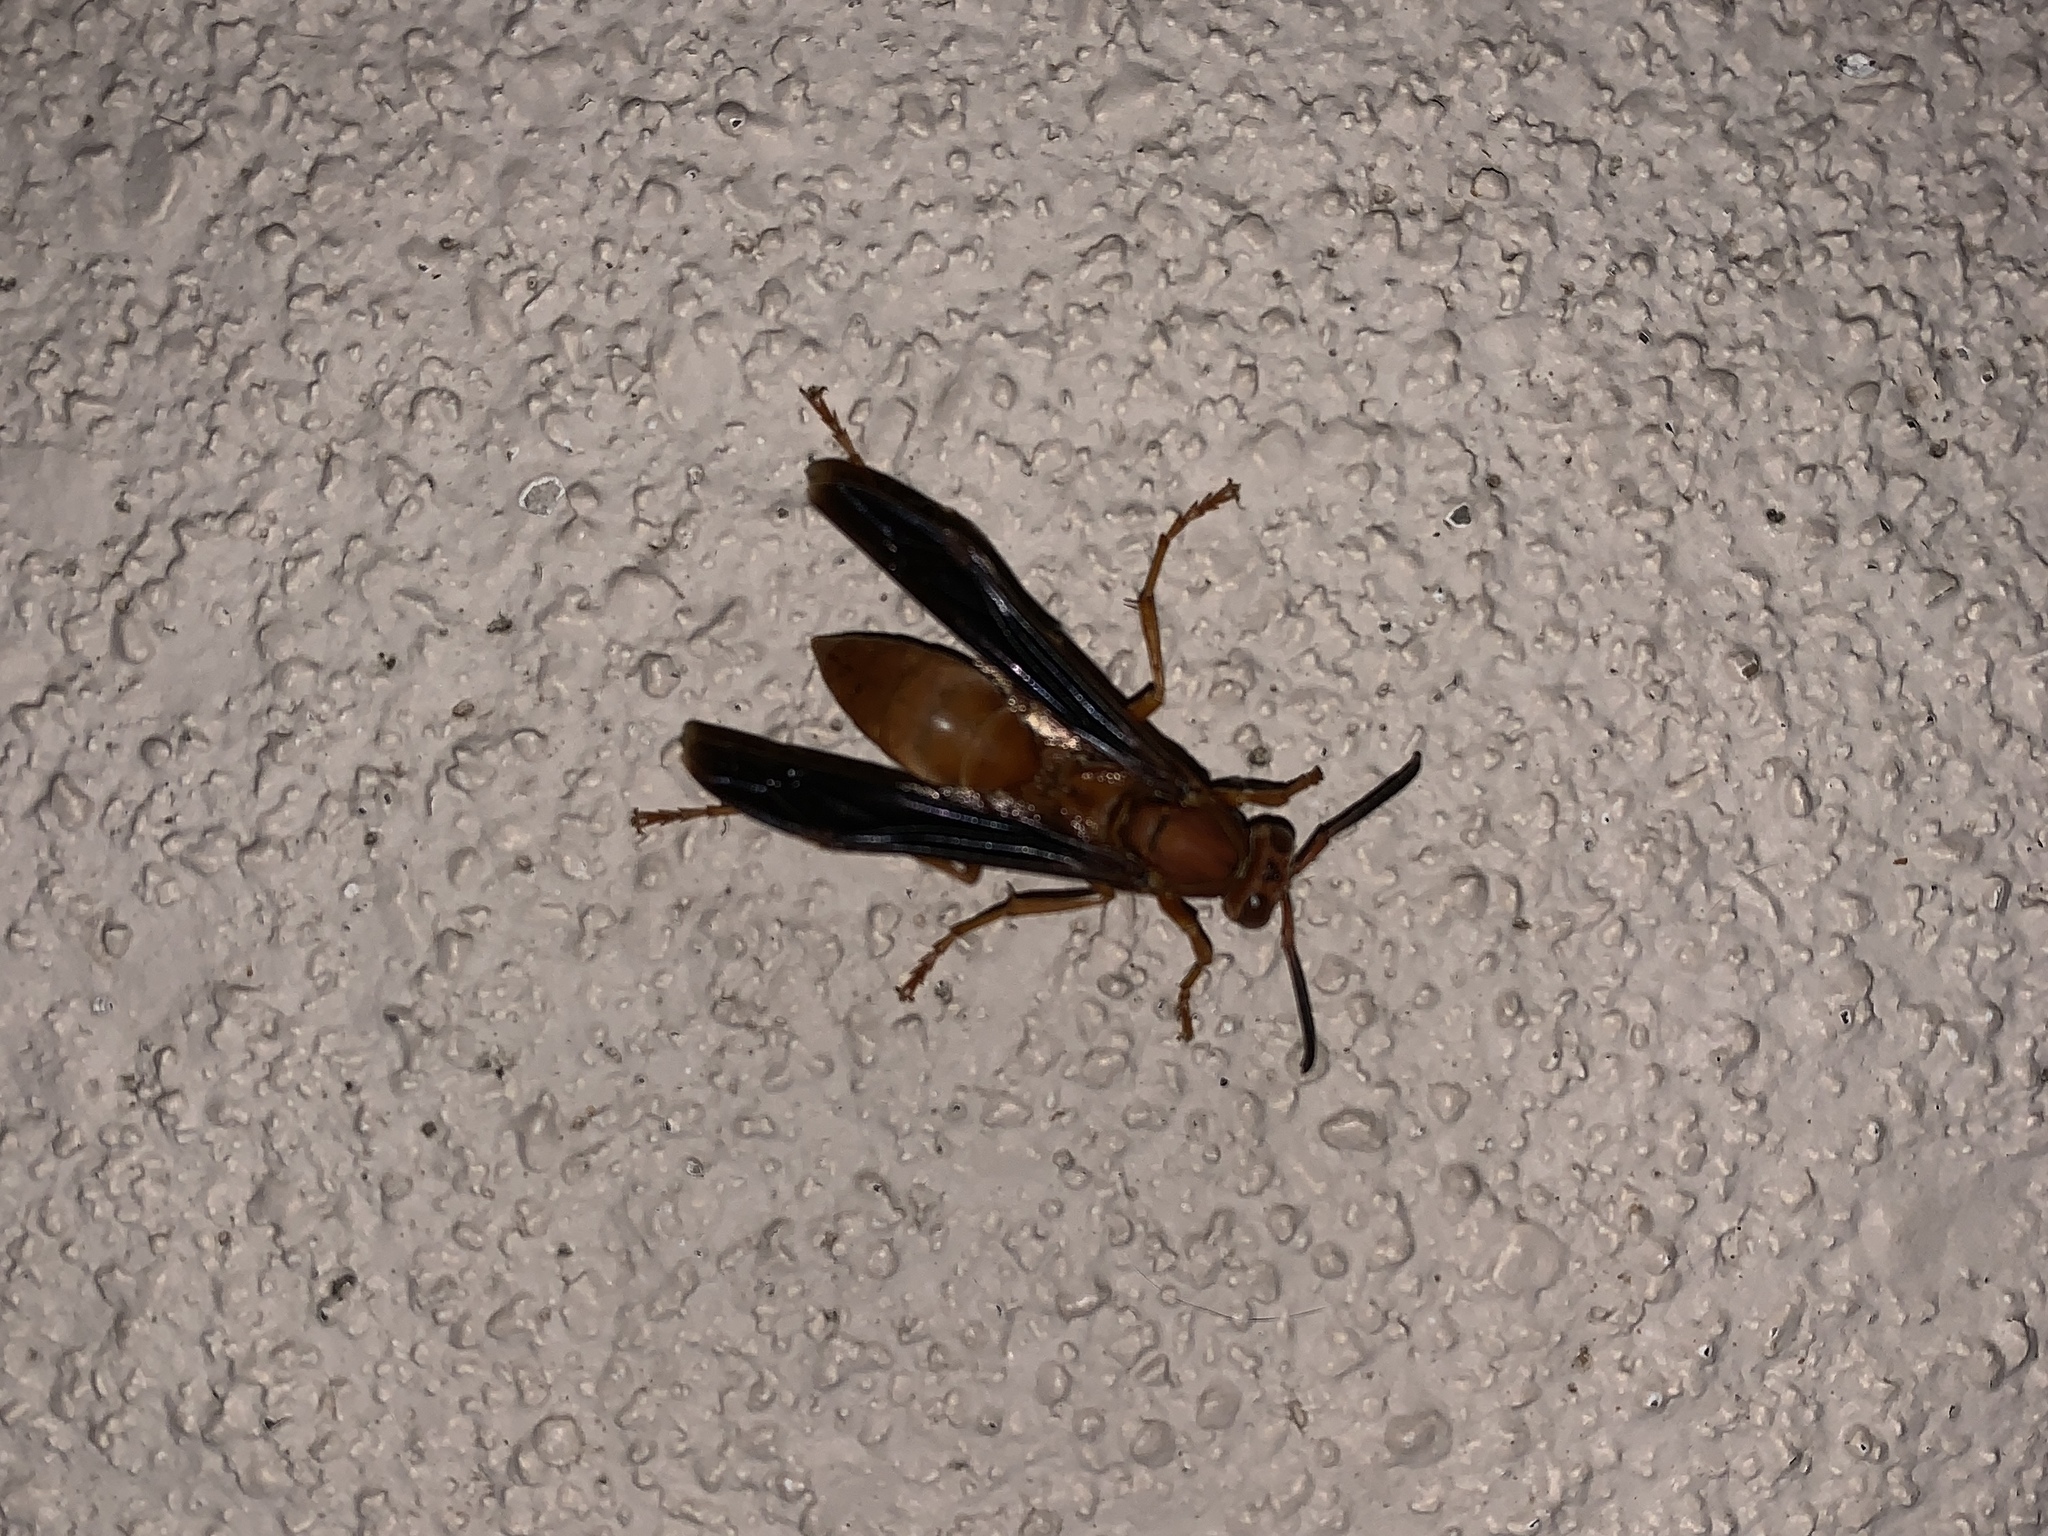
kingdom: Animalia
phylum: Arthropoda
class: Insecta
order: Hymenoptera
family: Eumenidae
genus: Polistes
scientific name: Polistes carolina
